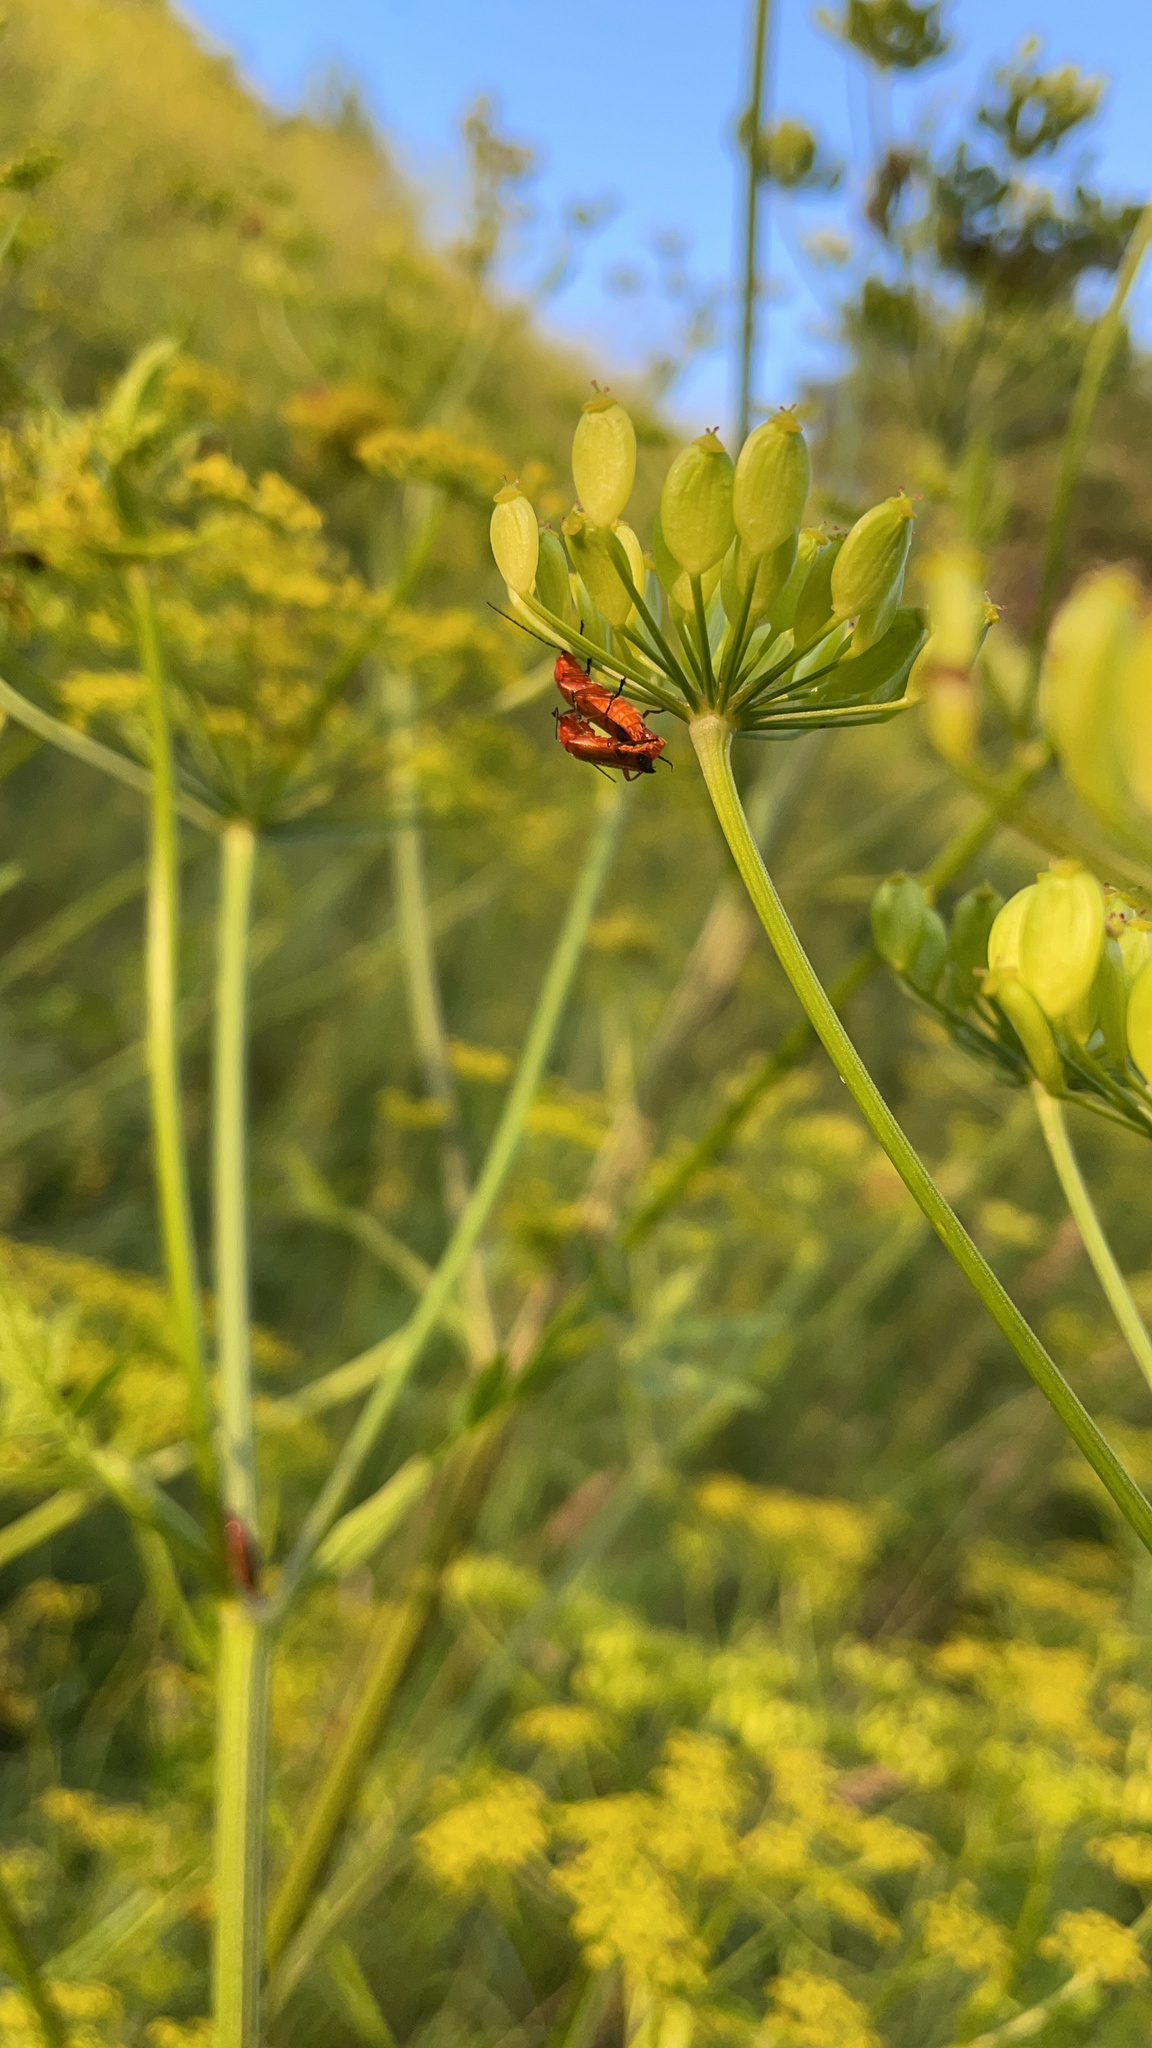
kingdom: Animalia
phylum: Arthropoda
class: Insecta
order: Coleoptera
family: Cantharidae
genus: Rhagonycha
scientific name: Rhagonycha fulva
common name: Common red soldier beetle
